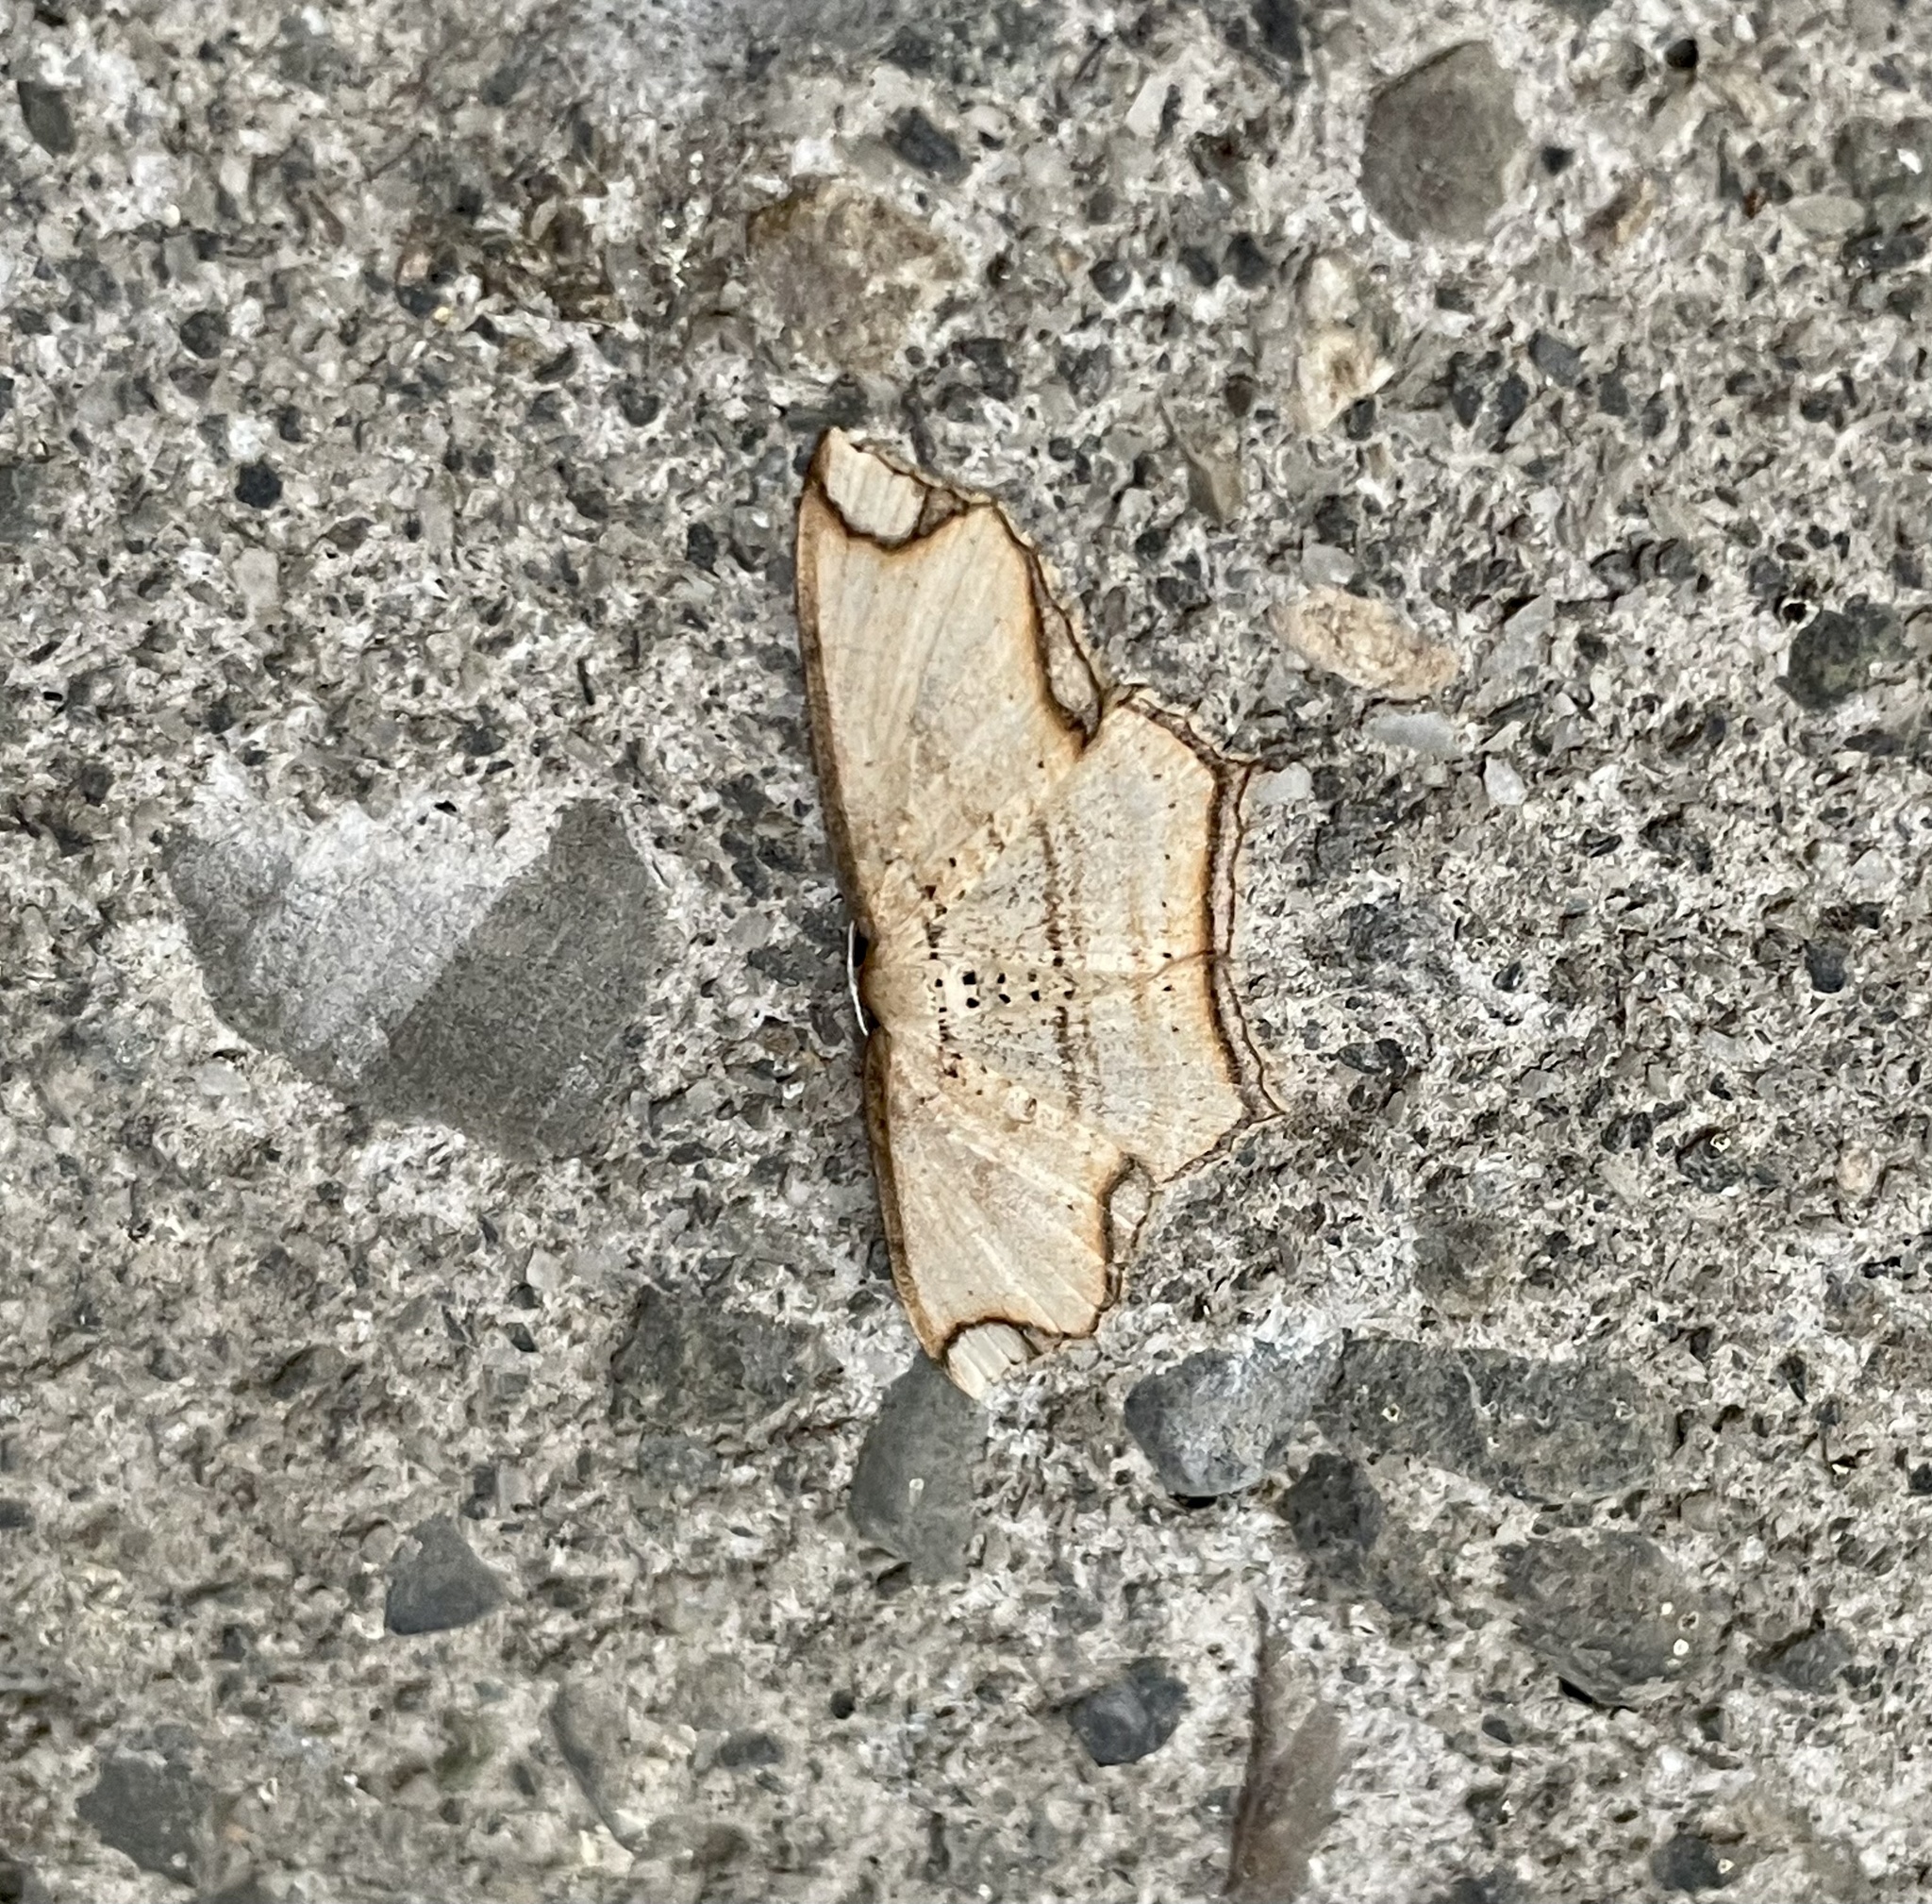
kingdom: Animalia
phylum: Arthropoda
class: Insecta
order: Lepidoptera
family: Geometridae
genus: Eschatarchia
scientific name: Eschatarchia lineata
